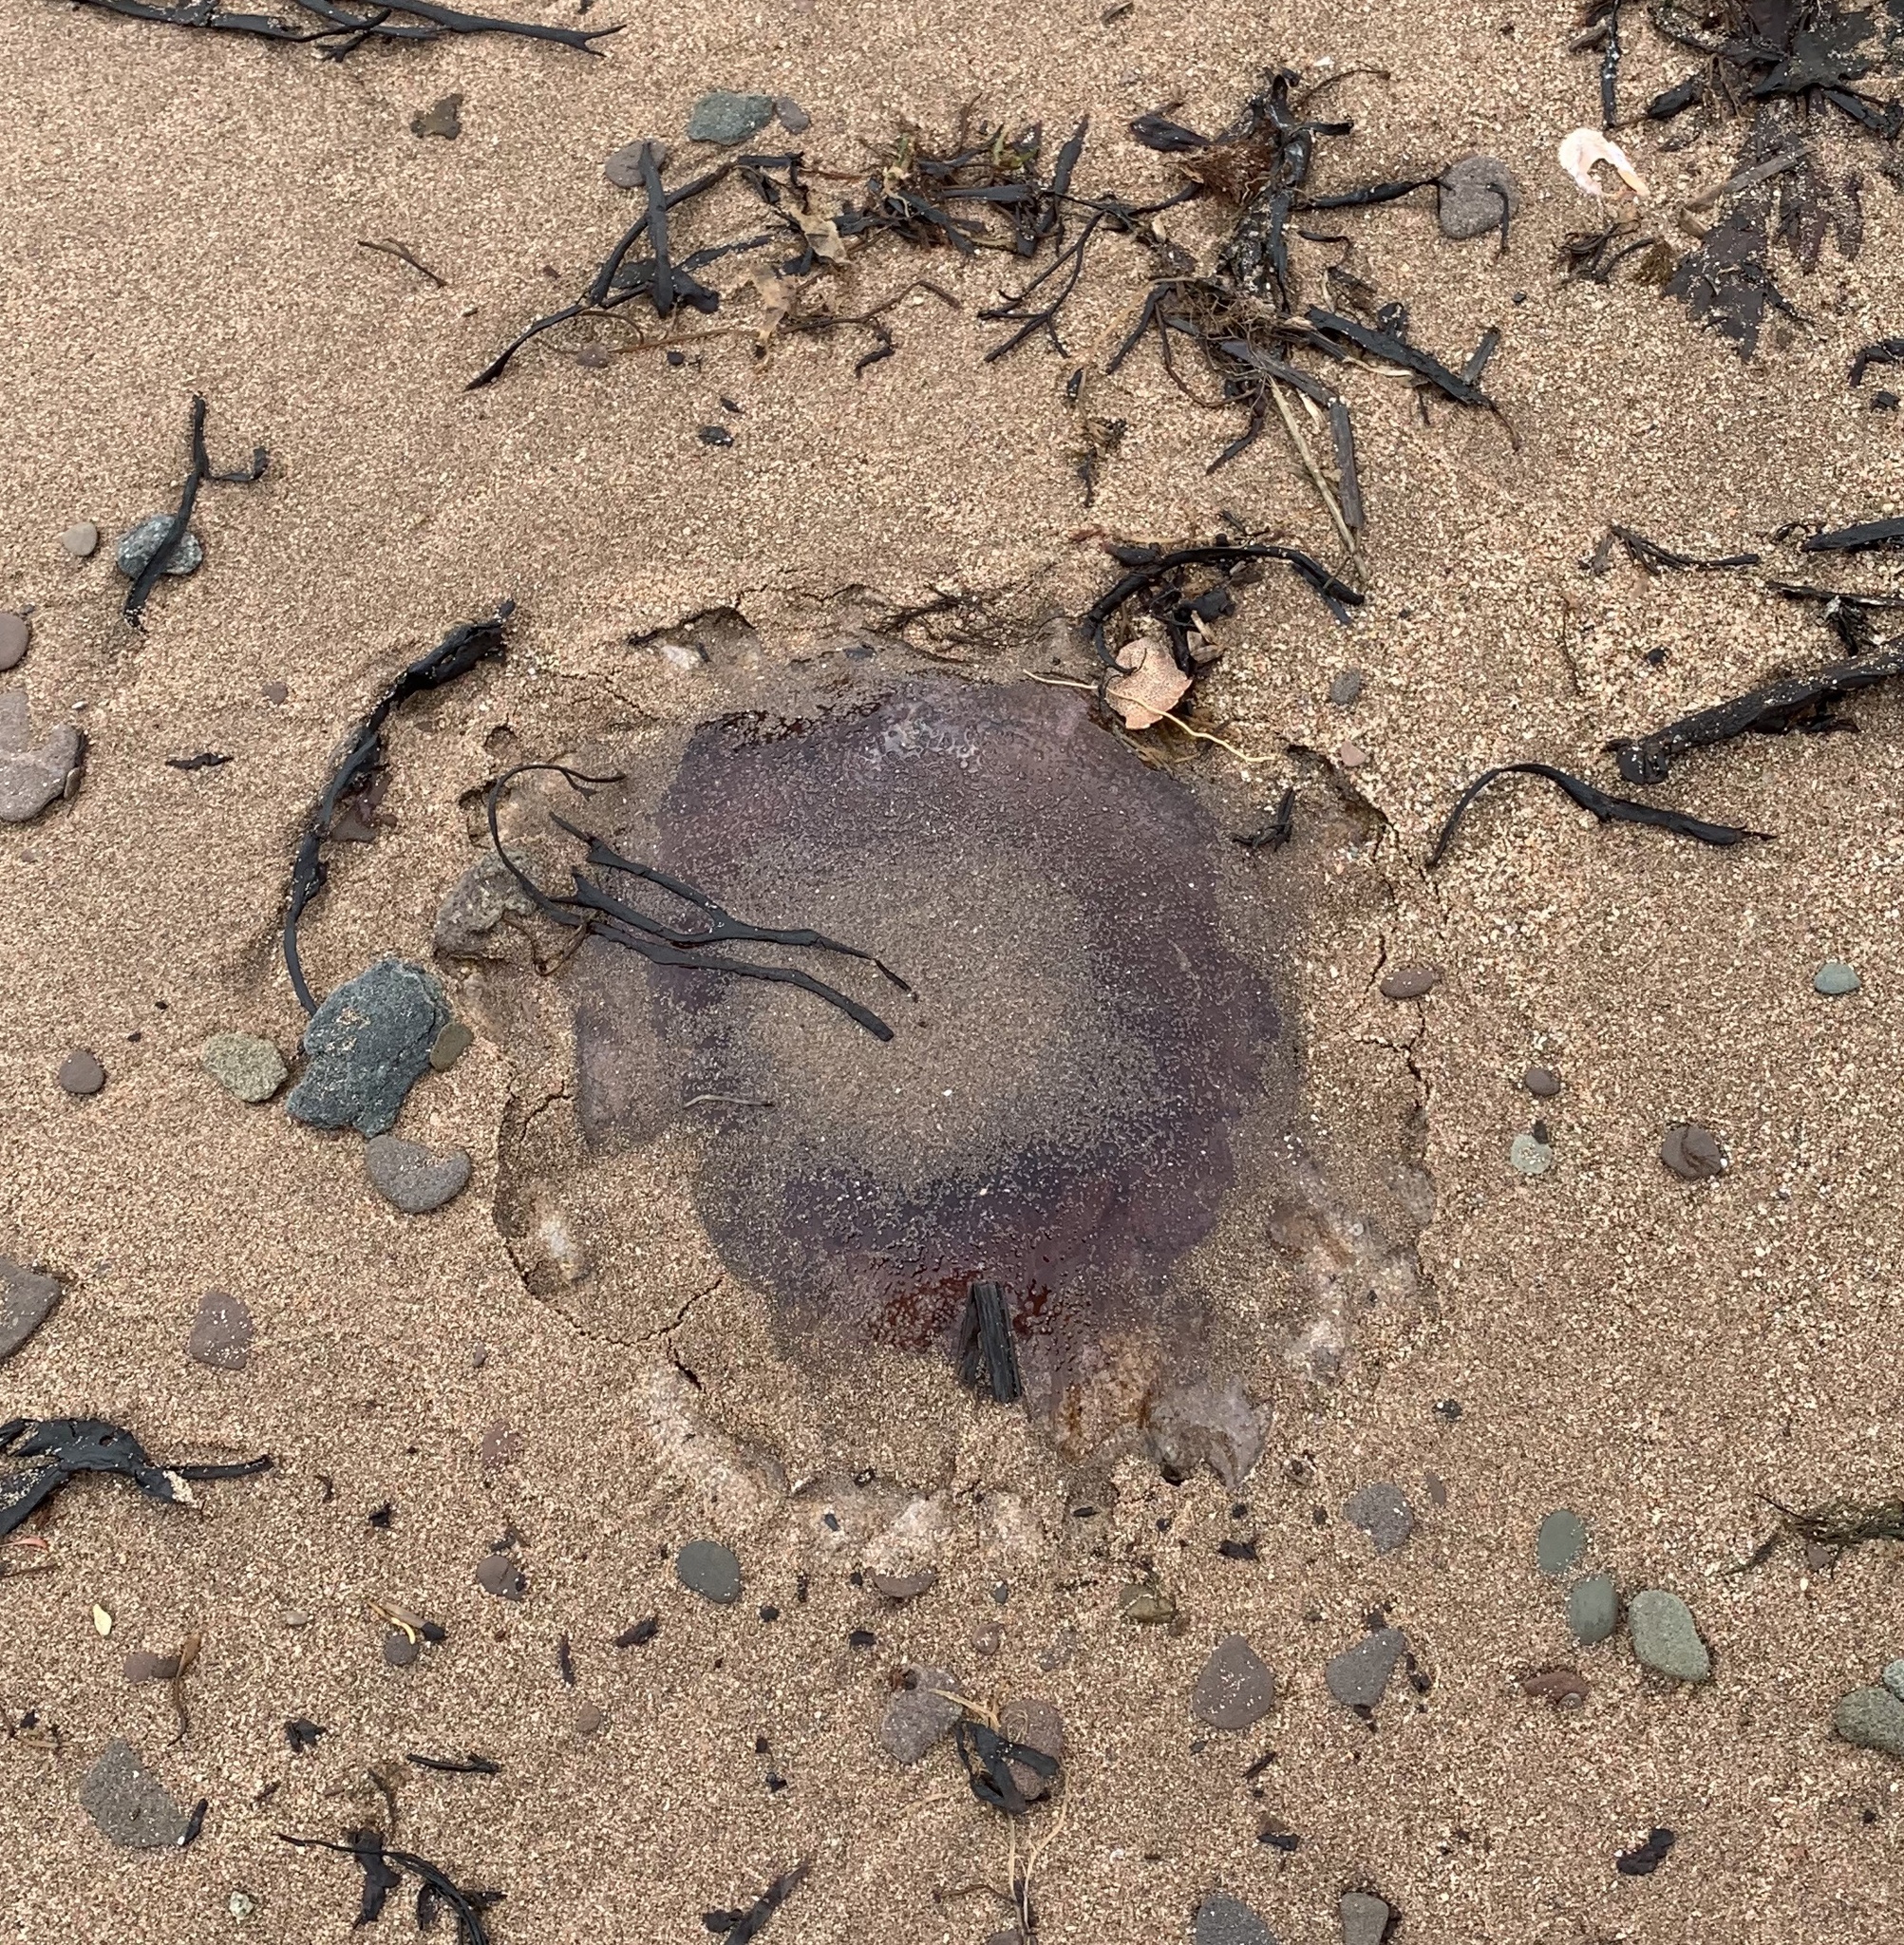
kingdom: Animalia
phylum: Cnidaria
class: Scyphozoa
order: Semaeostomeae
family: Cyaneidae
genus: Cyanea
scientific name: Cyanea
